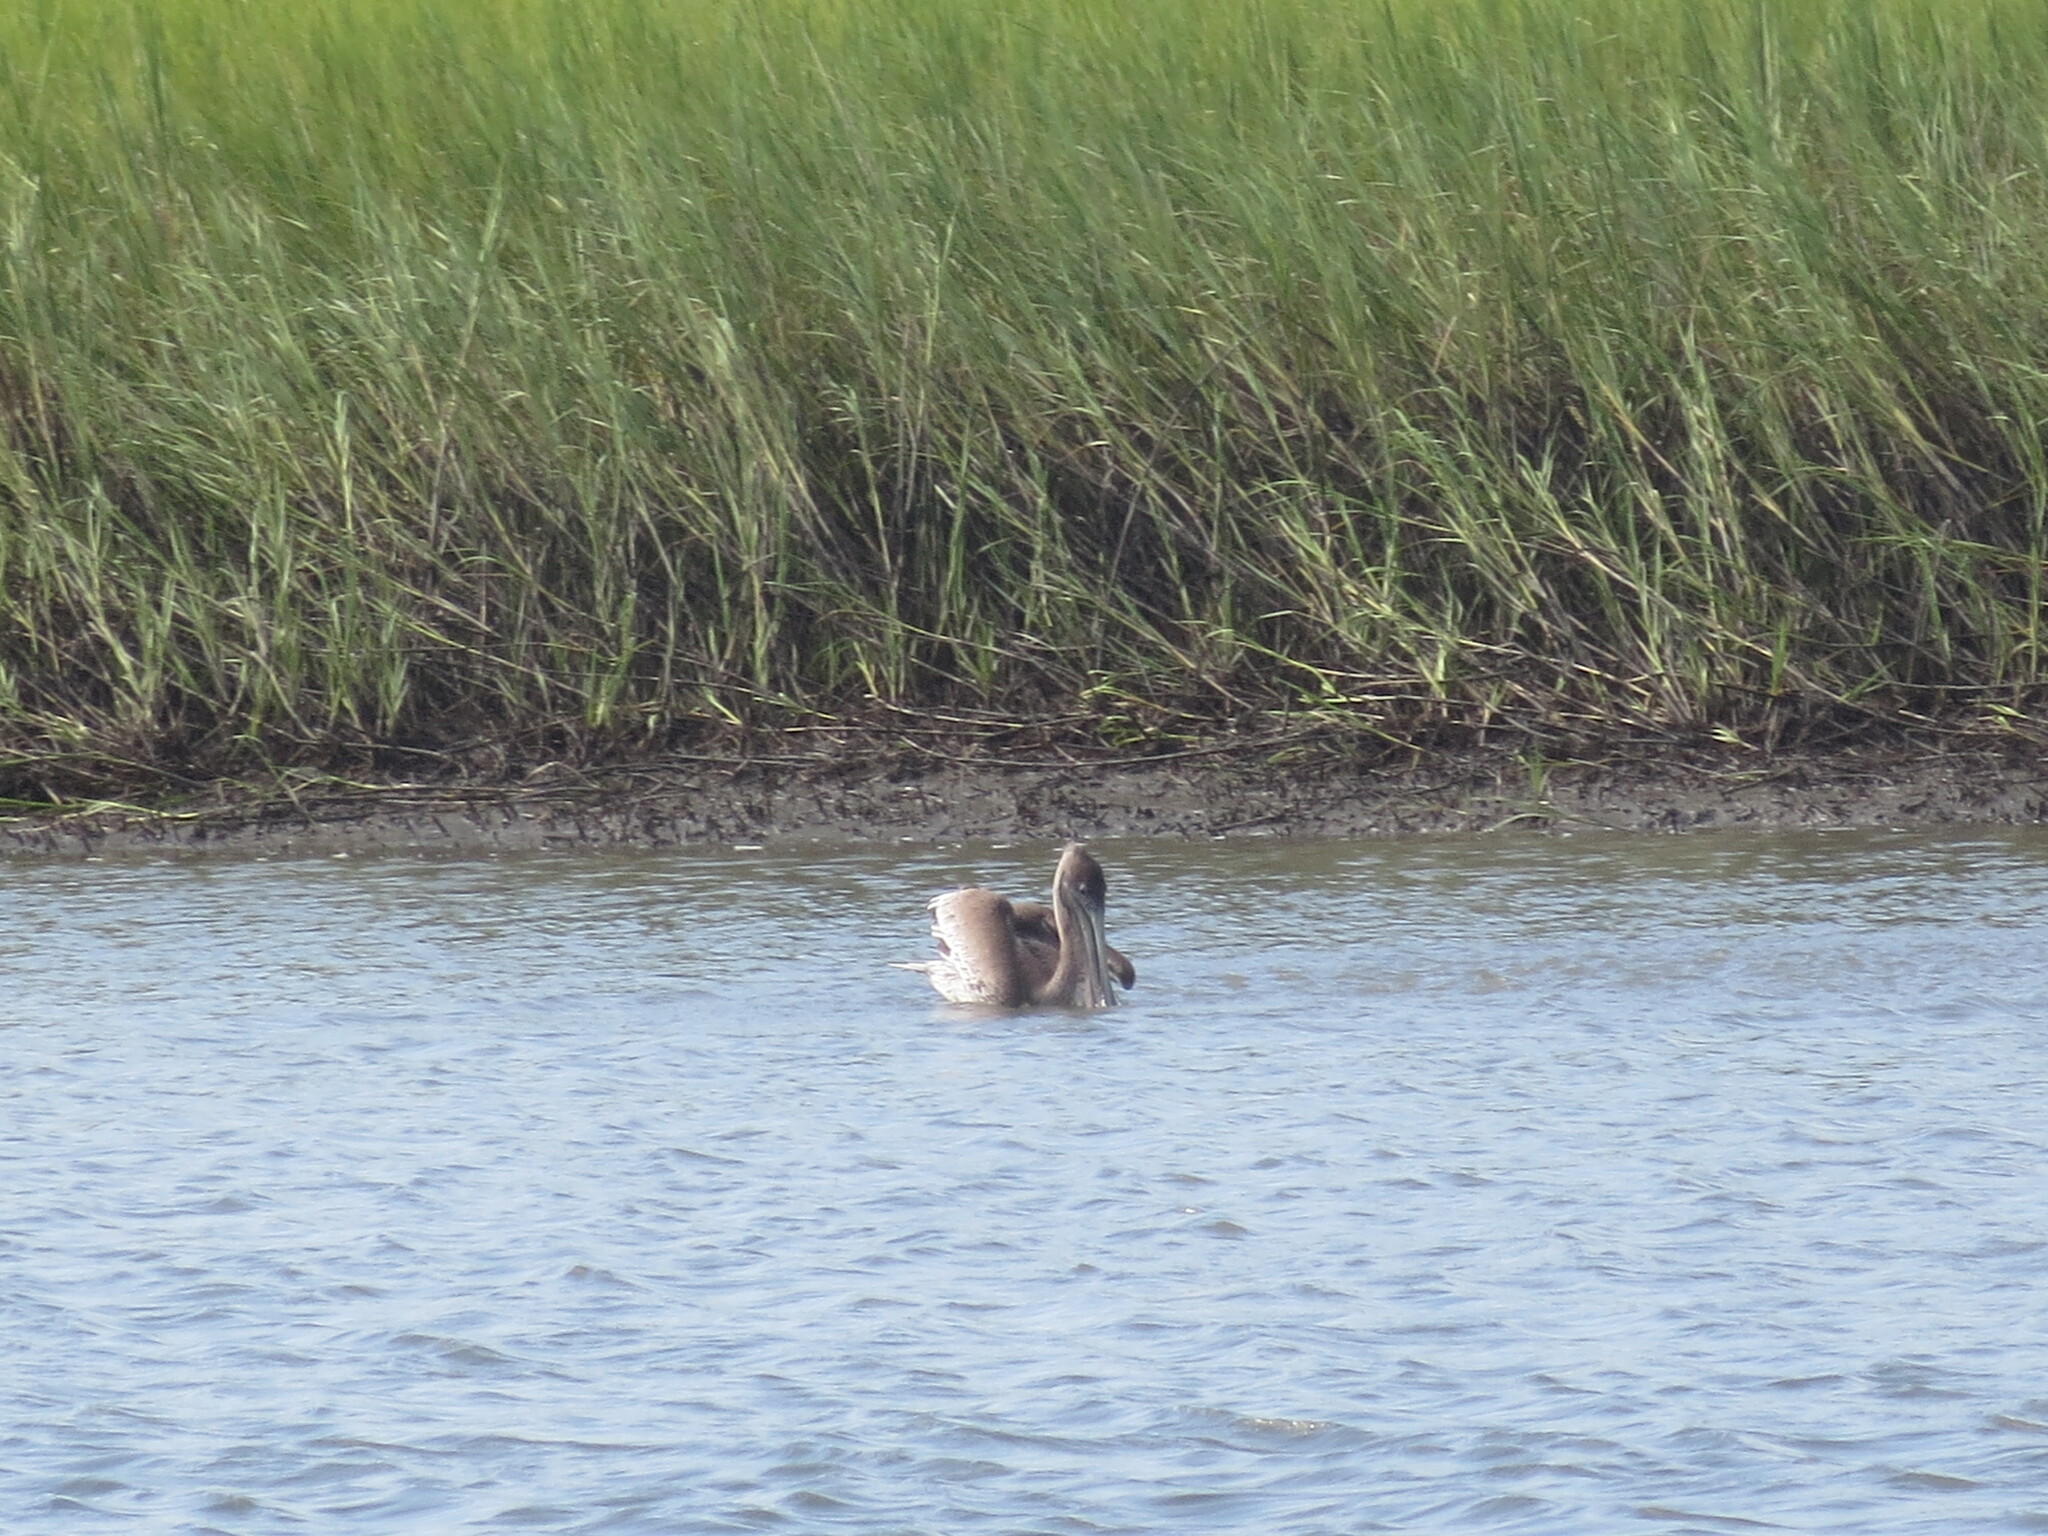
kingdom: Animalia
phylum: Chordata
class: Aves
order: Pelecaniformes
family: Pelecanidae
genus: Pelecanus
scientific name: Pelecanus occidentalis
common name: Brown pelican
